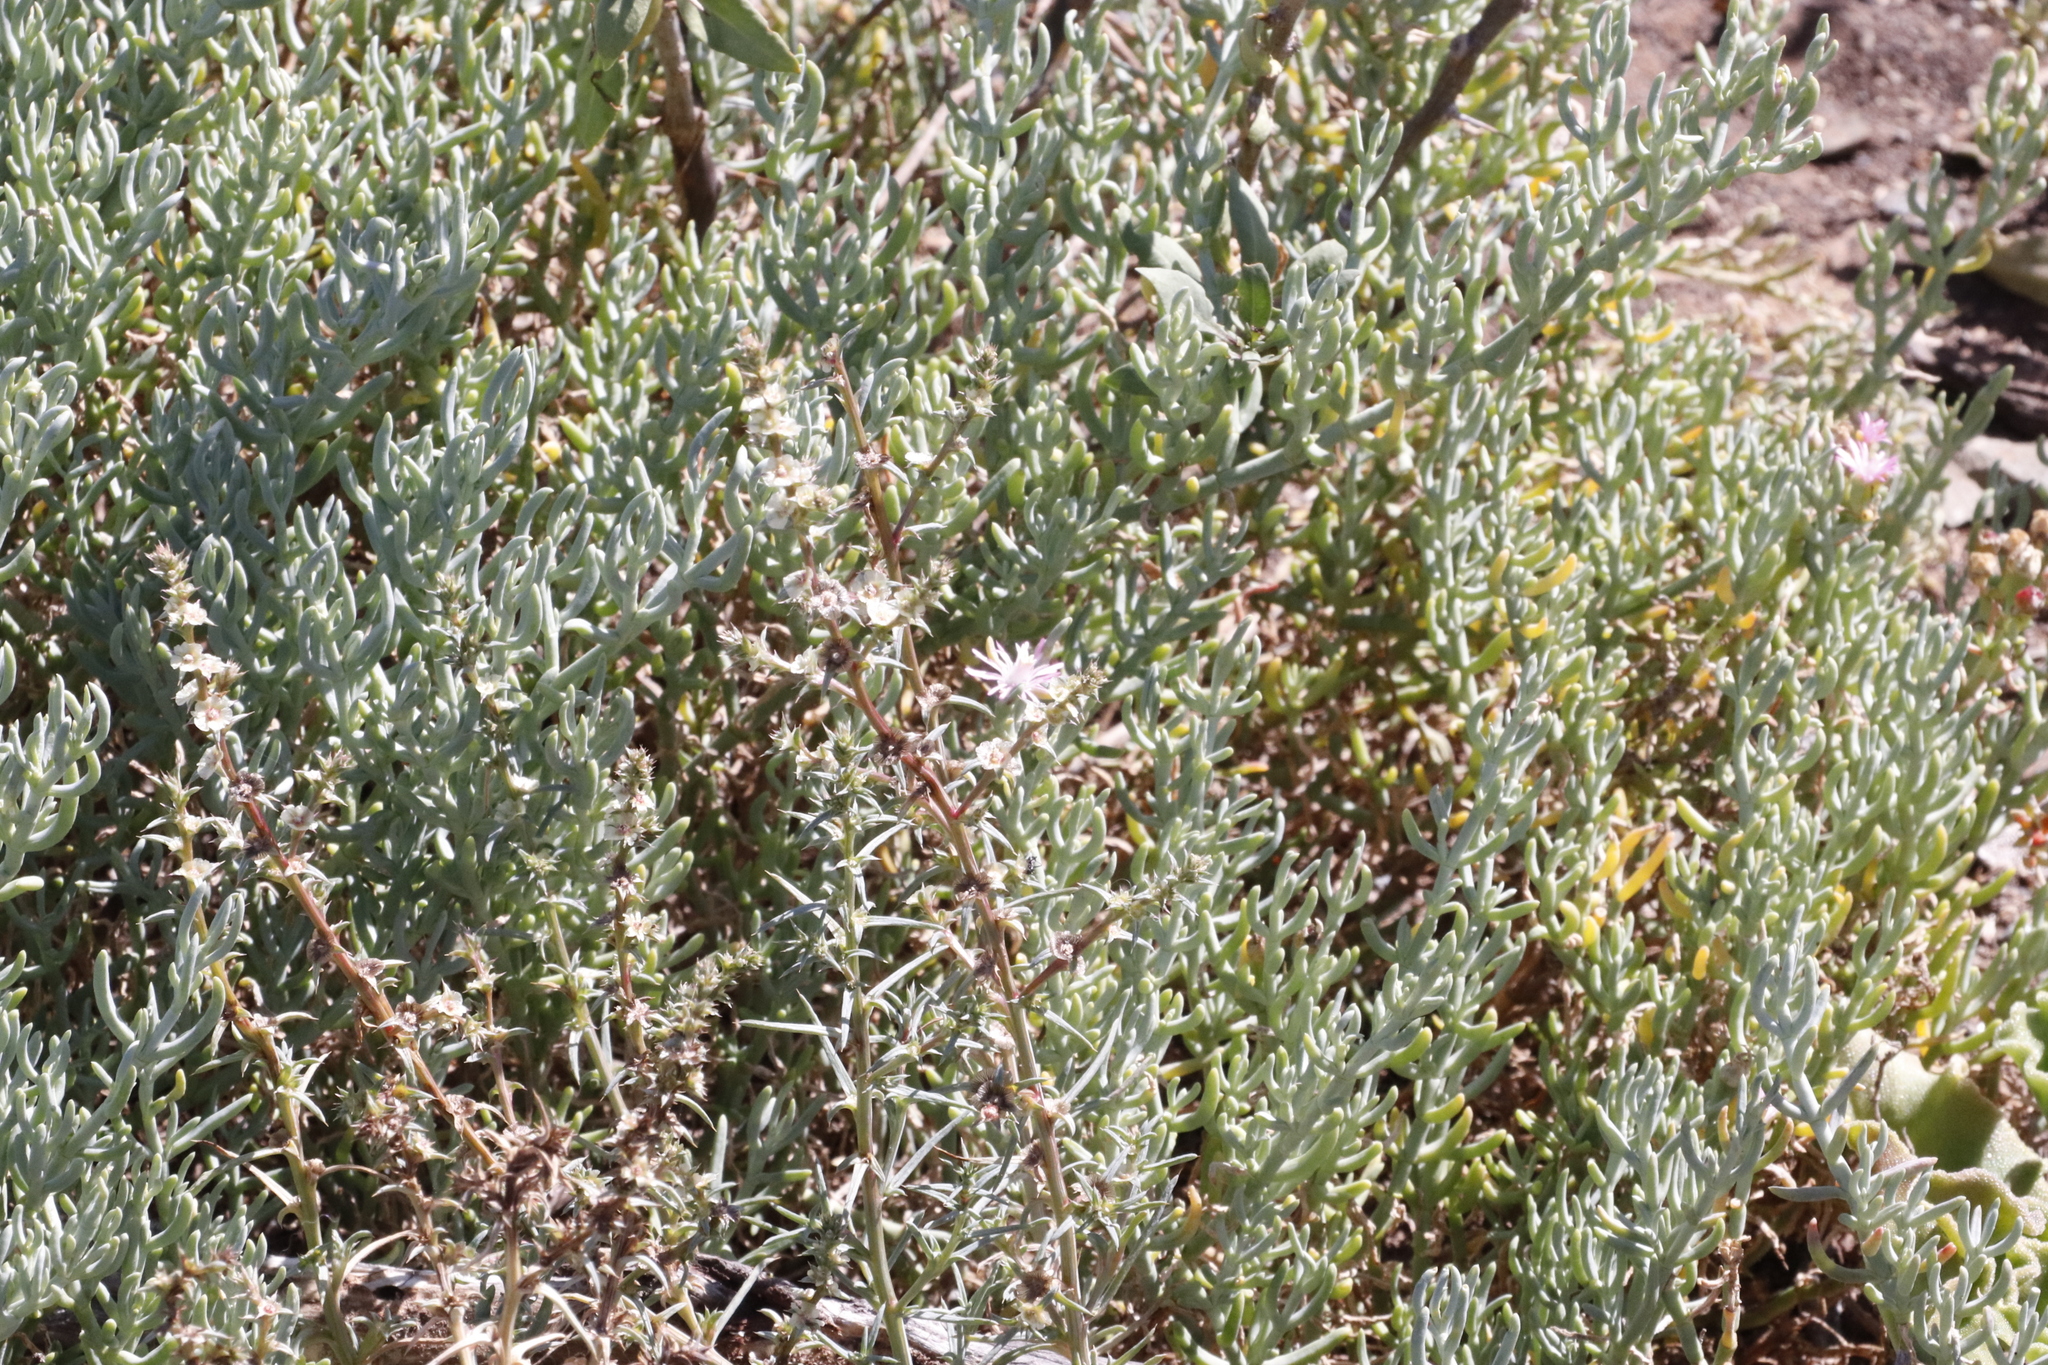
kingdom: Plantae
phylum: Tracheophyta
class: Magnoliopsida
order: Caryophyllales
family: Aizoaceae
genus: Mesembryanthemum
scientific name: Mesembryanthemum tetragonum
